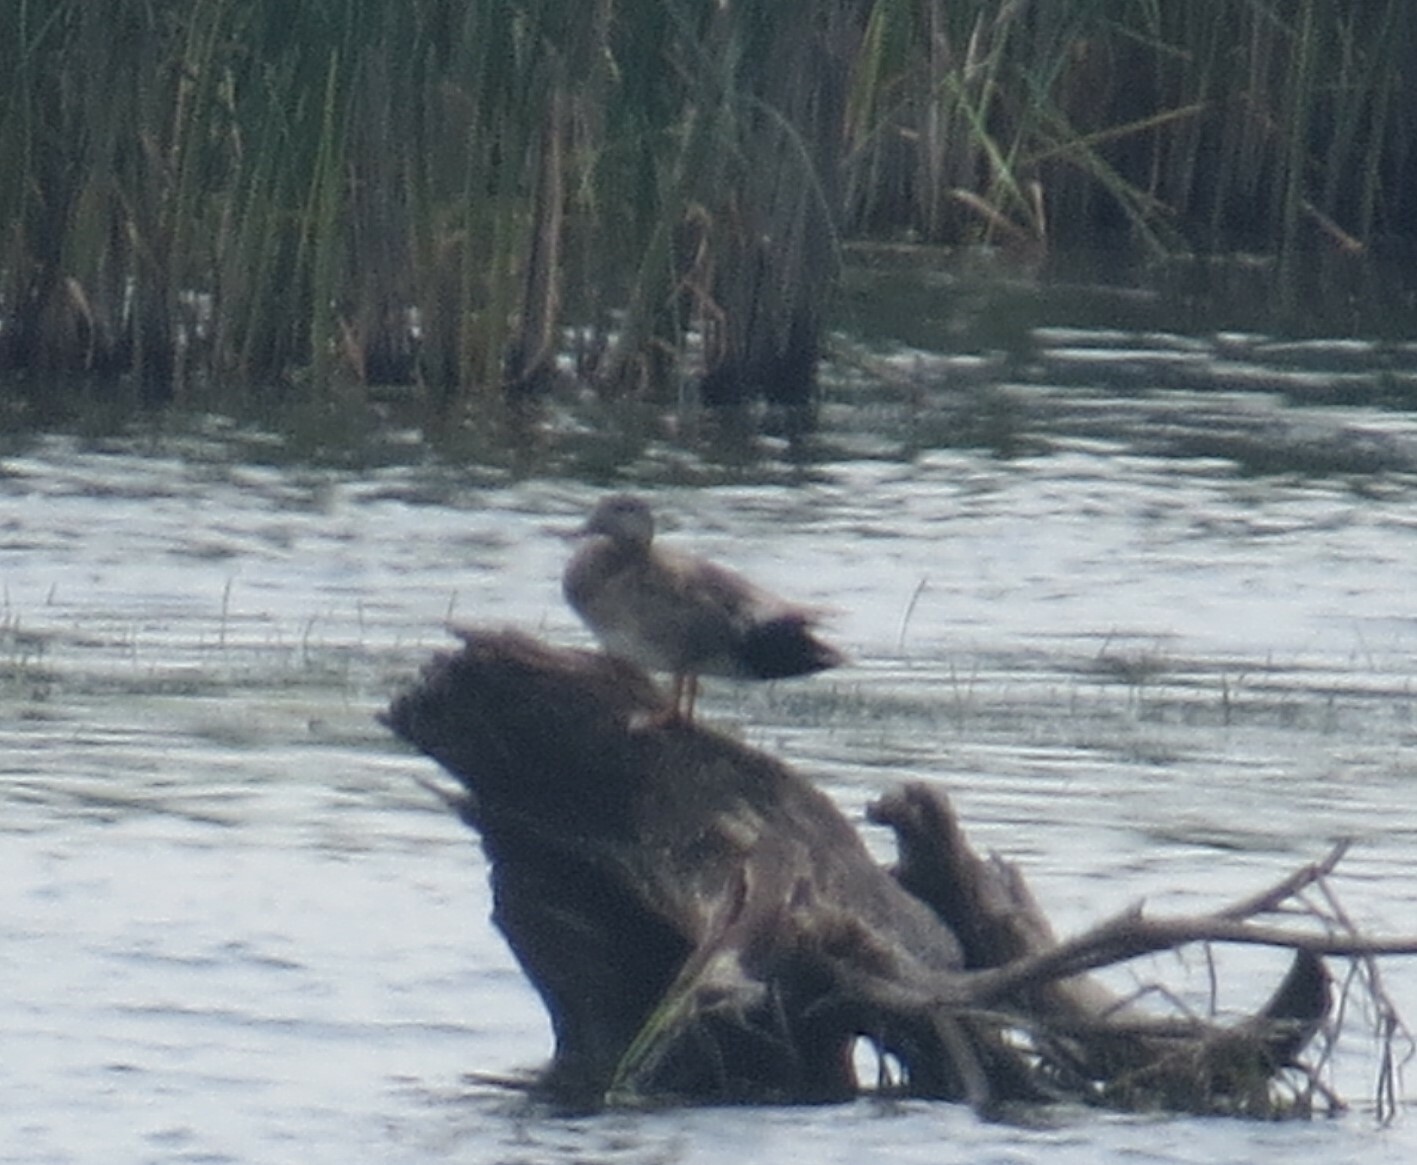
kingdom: Animalia
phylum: Chordata
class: Aves
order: Anseriformes
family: Anatidae
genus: Mareca
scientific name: Mareca strepera
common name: Gadwall
